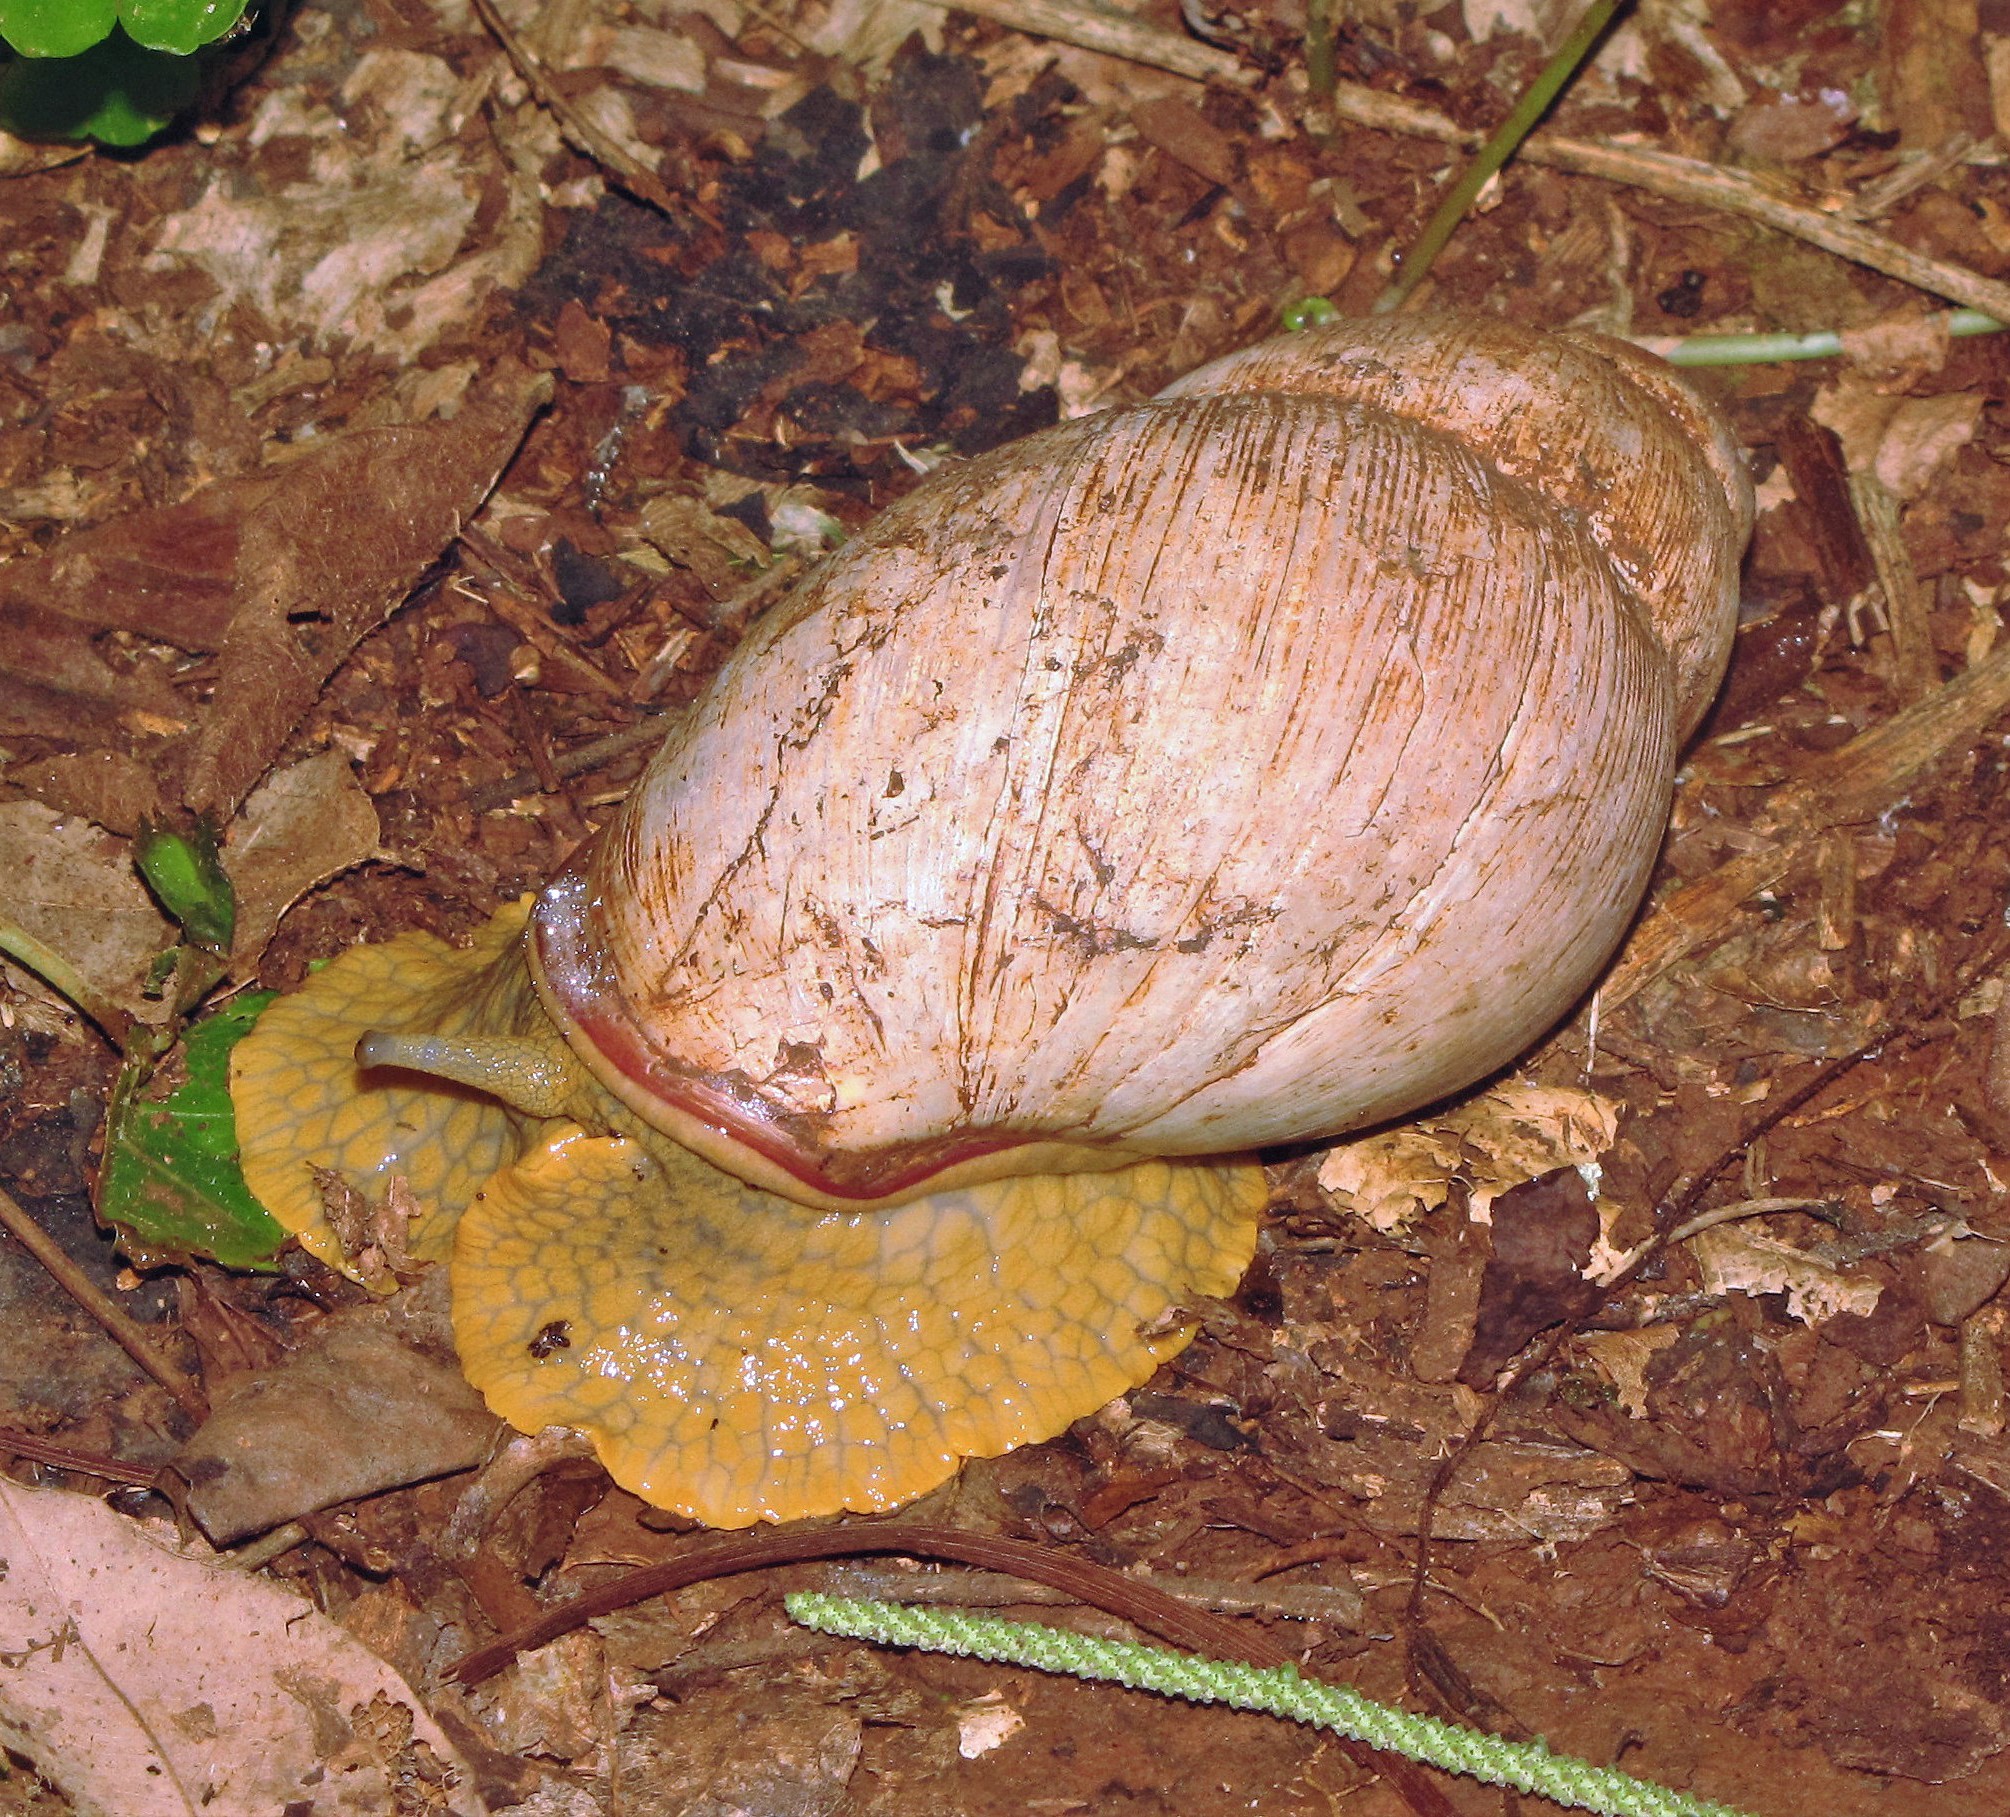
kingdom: Animalia
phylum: Mollusca
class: Gastropoda
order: Stylommatophora
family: Strophocheilidae
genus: Megalobulimus
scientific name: Megalobulimus sanctaepauli
